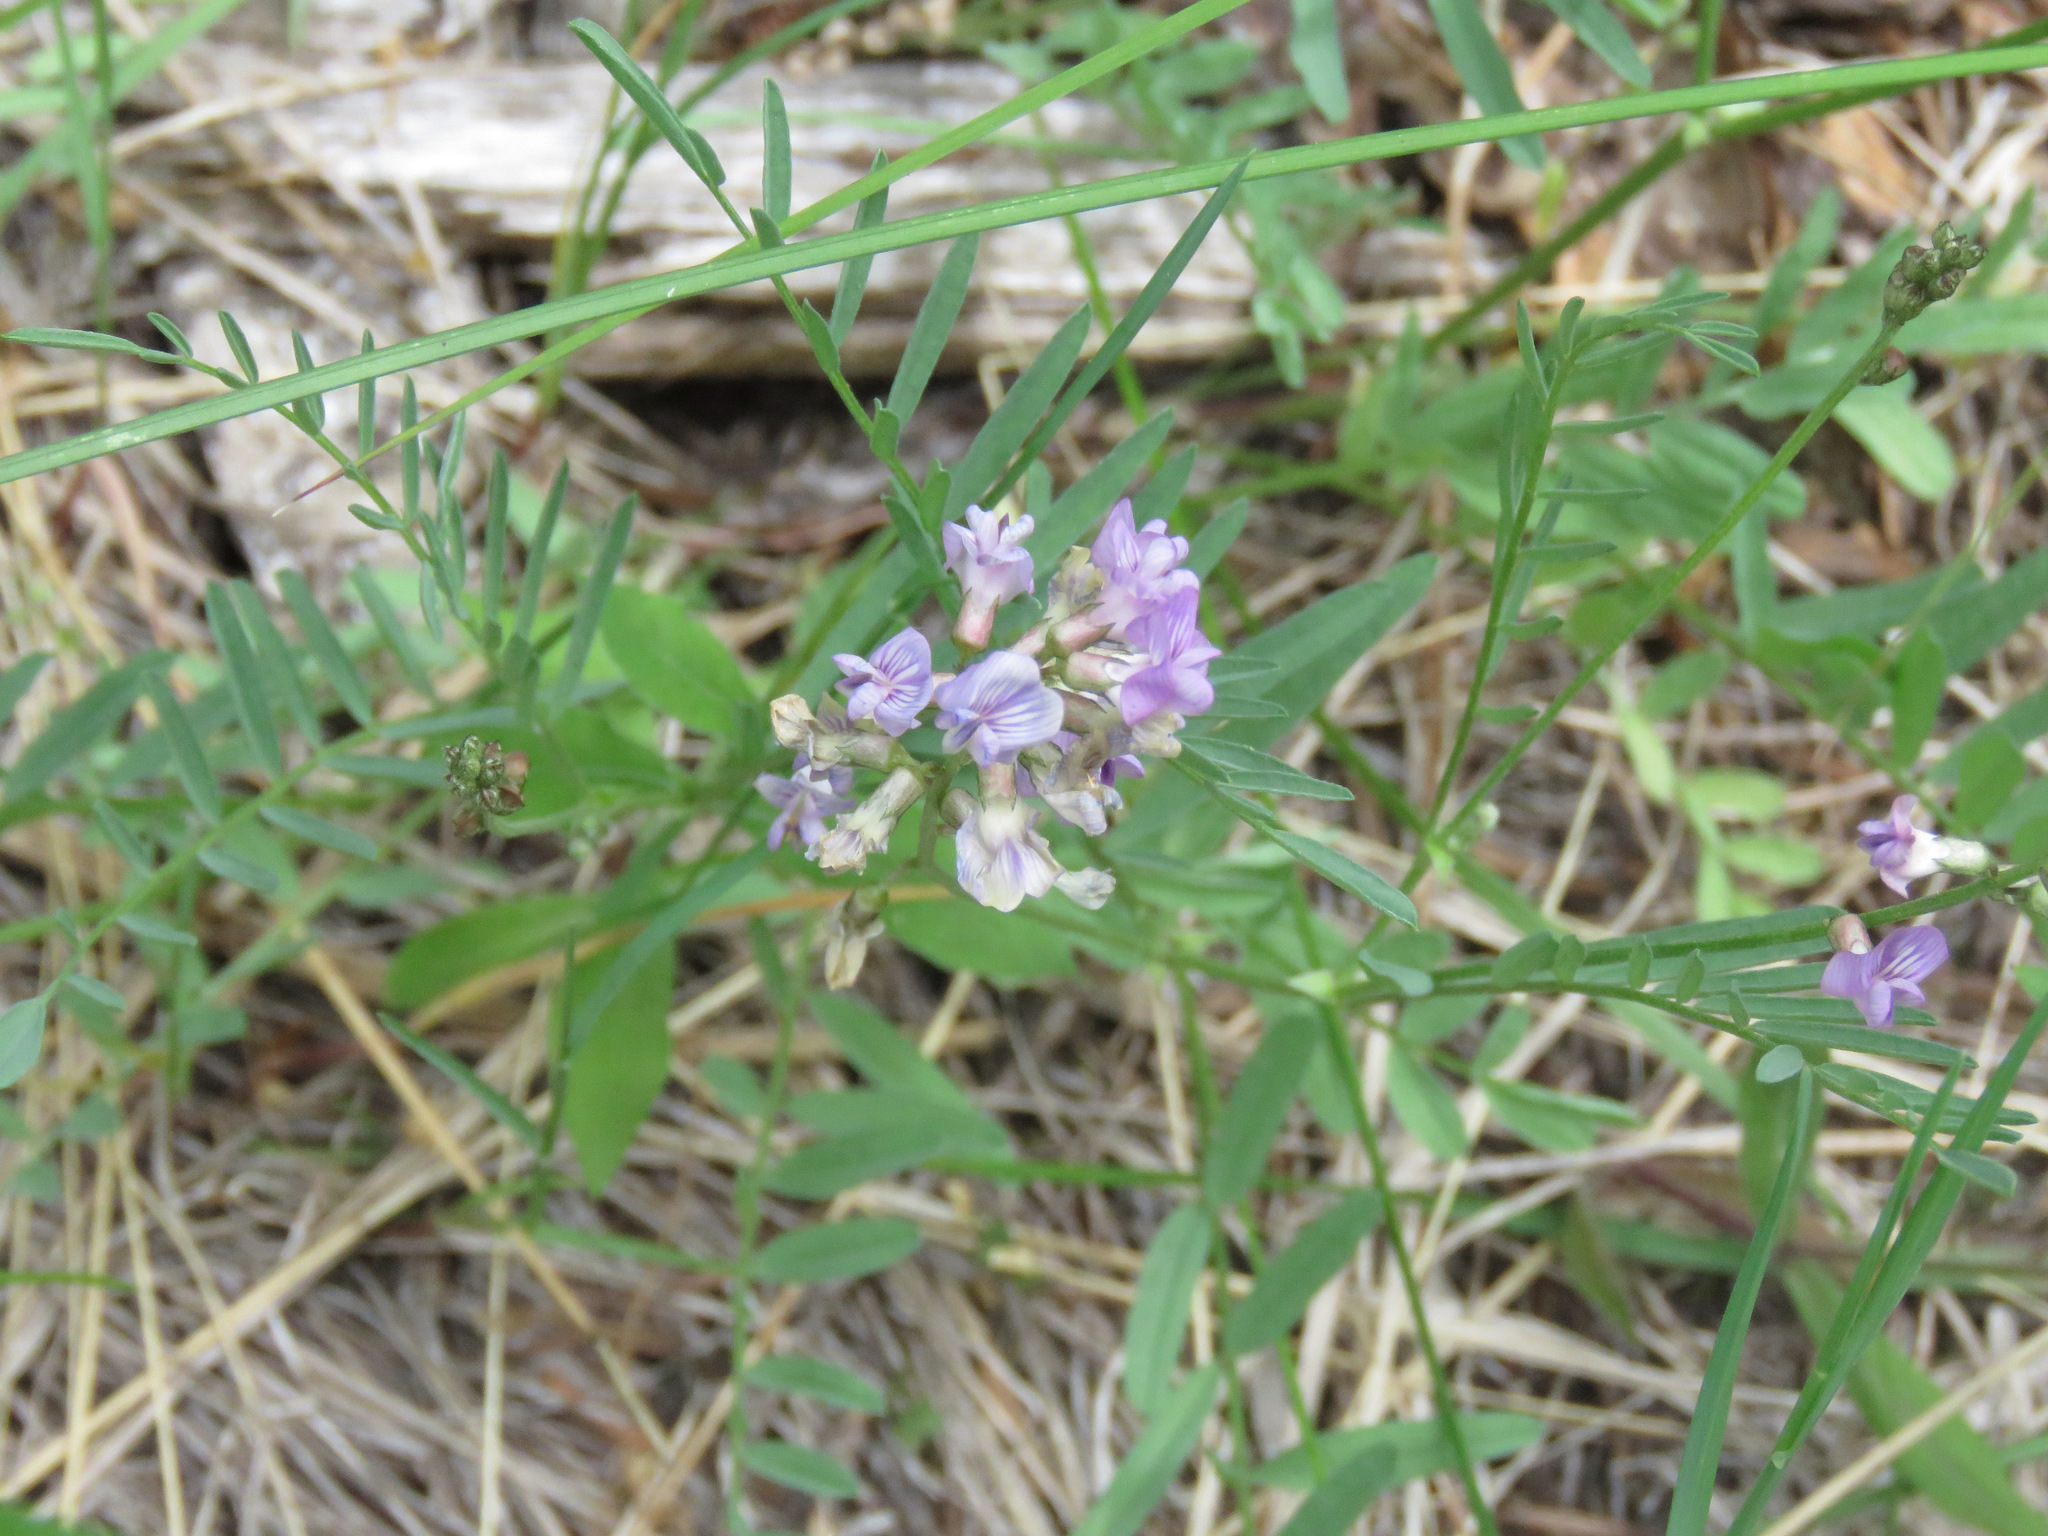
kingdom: Plantae
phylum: Tracheophyta
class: Magnoliopsida
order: Fabales
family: Fabaceae
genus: Astragalus
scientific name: Astragalus miser
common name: Timber milkvetch
